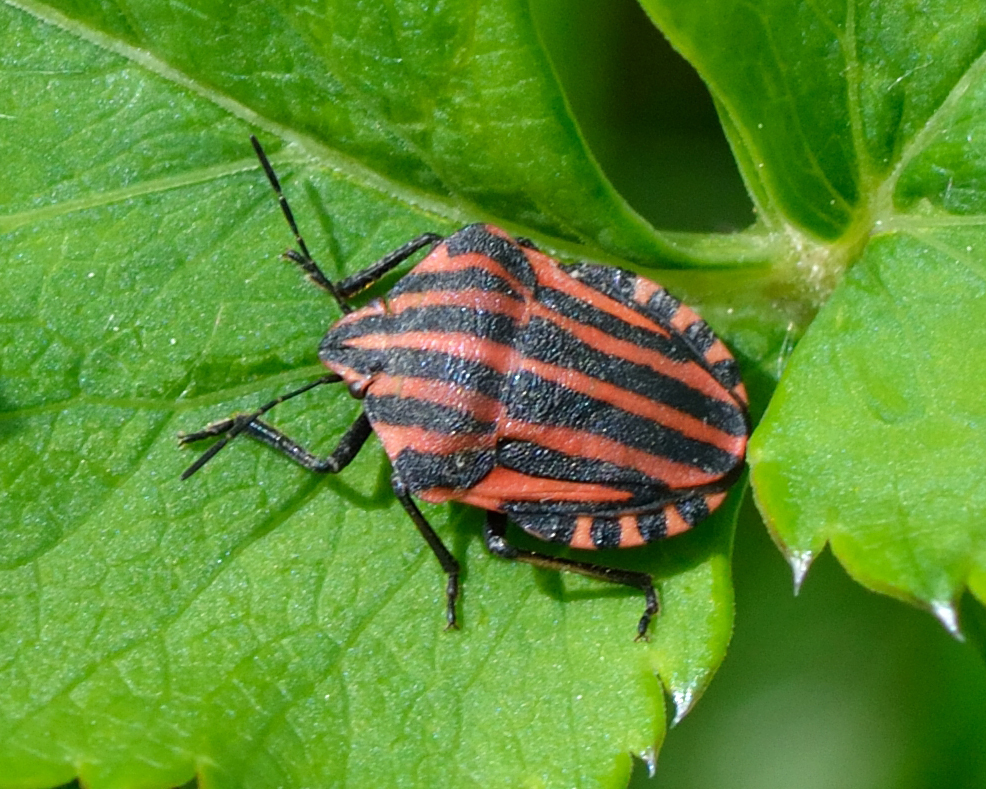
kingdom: Animalia
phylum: Arthropoda
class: Insecta
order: Hemiptera
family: Pentatomidae
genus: Graphosoma
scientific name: Graphosoma italicum
